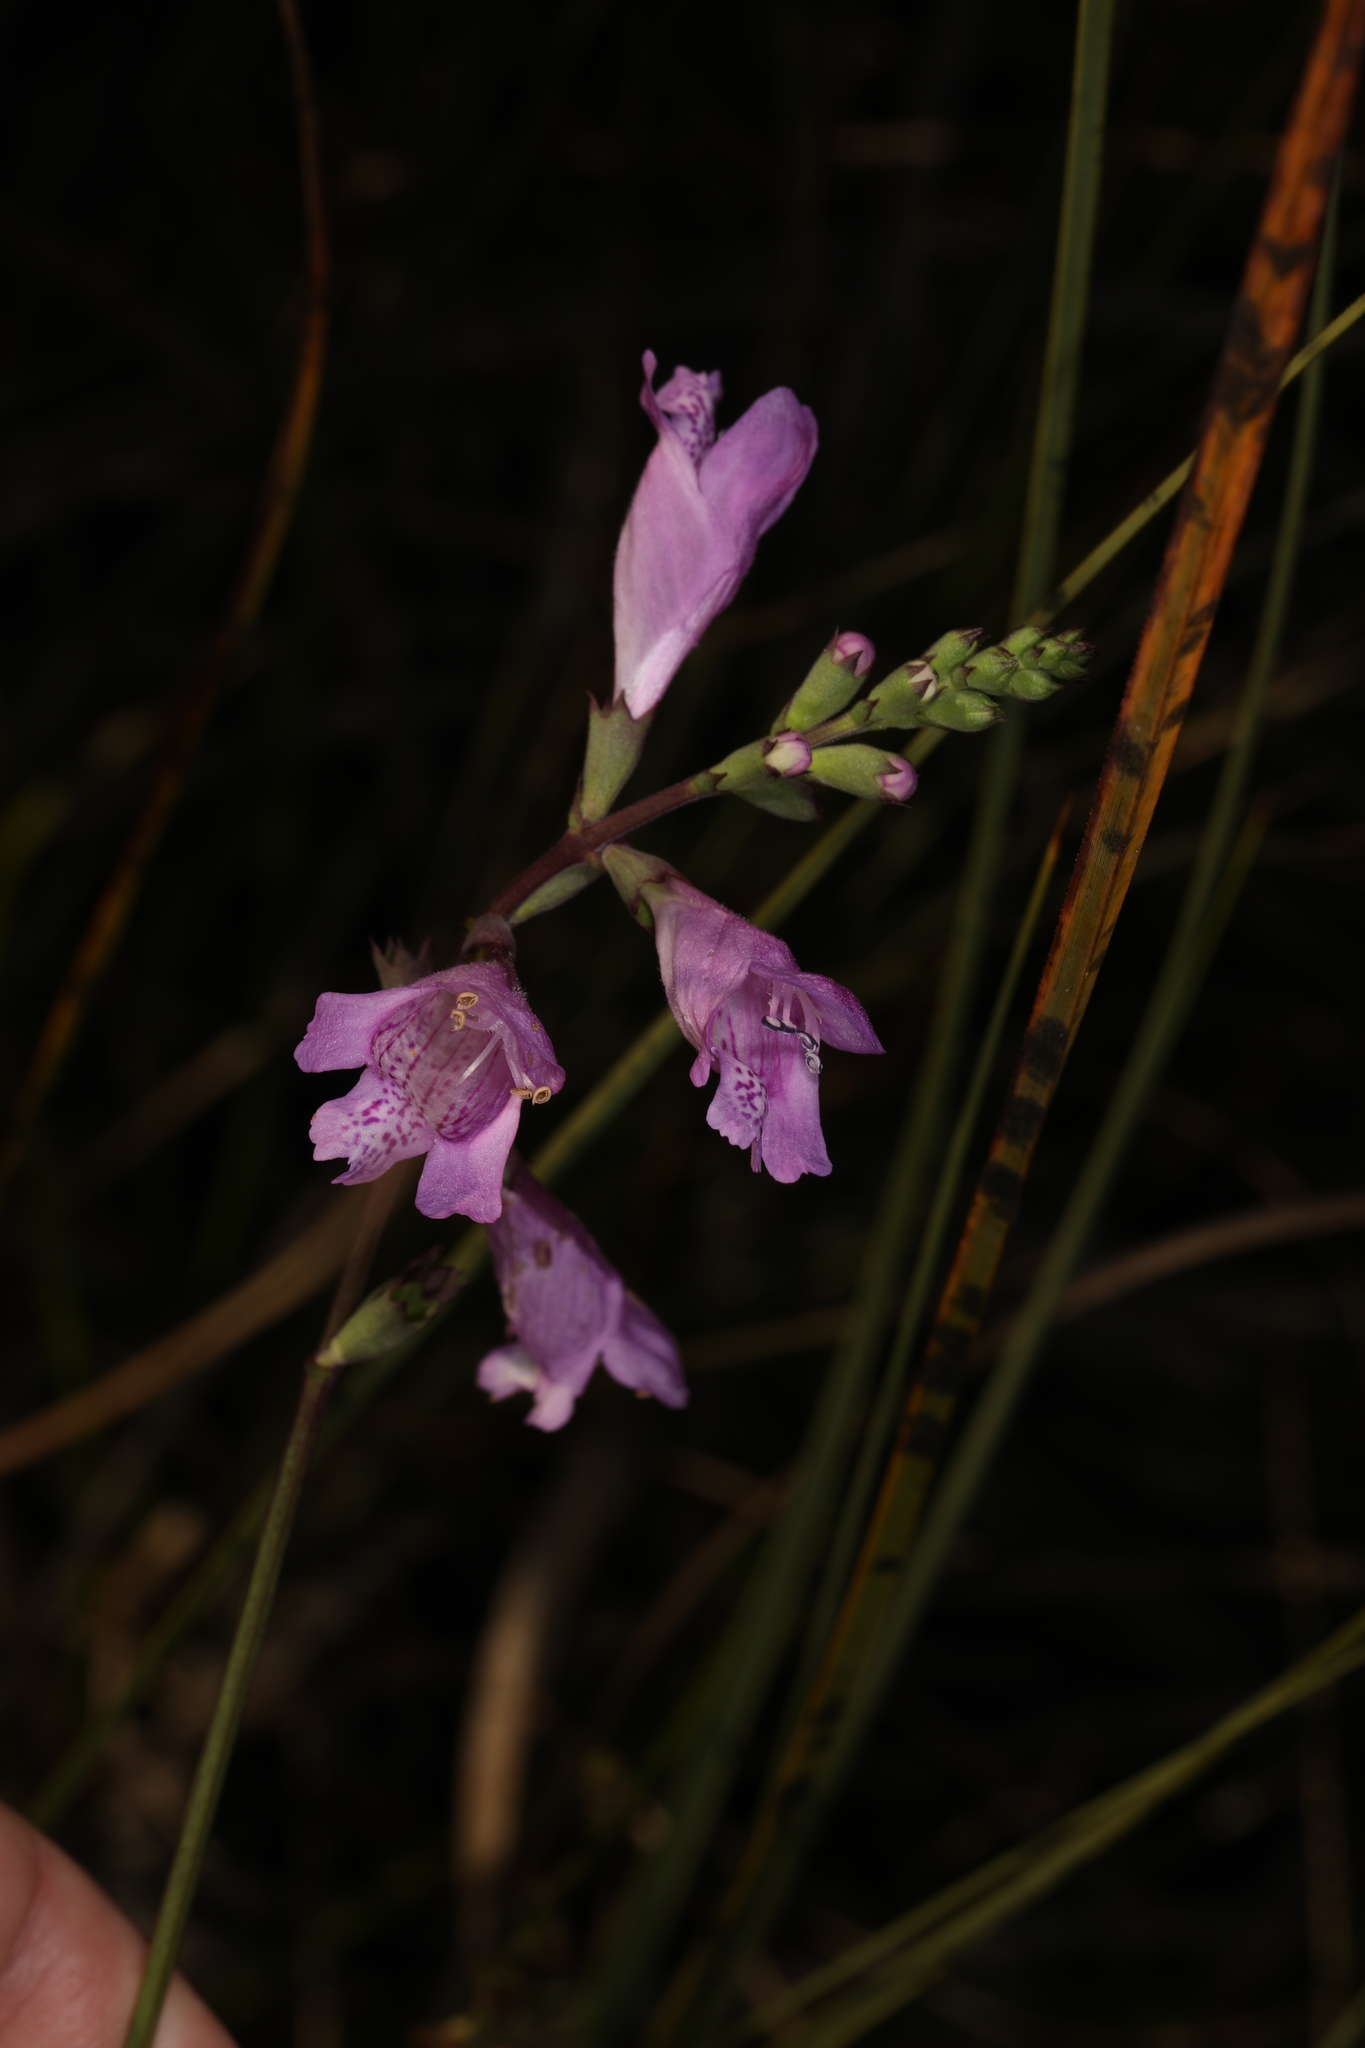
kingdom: Plantae
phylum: Tracheophyta
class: Magnoliopsida
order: Lamiales
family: Lamiaceae
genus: Physostegia
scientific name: Physostegia purpurea
